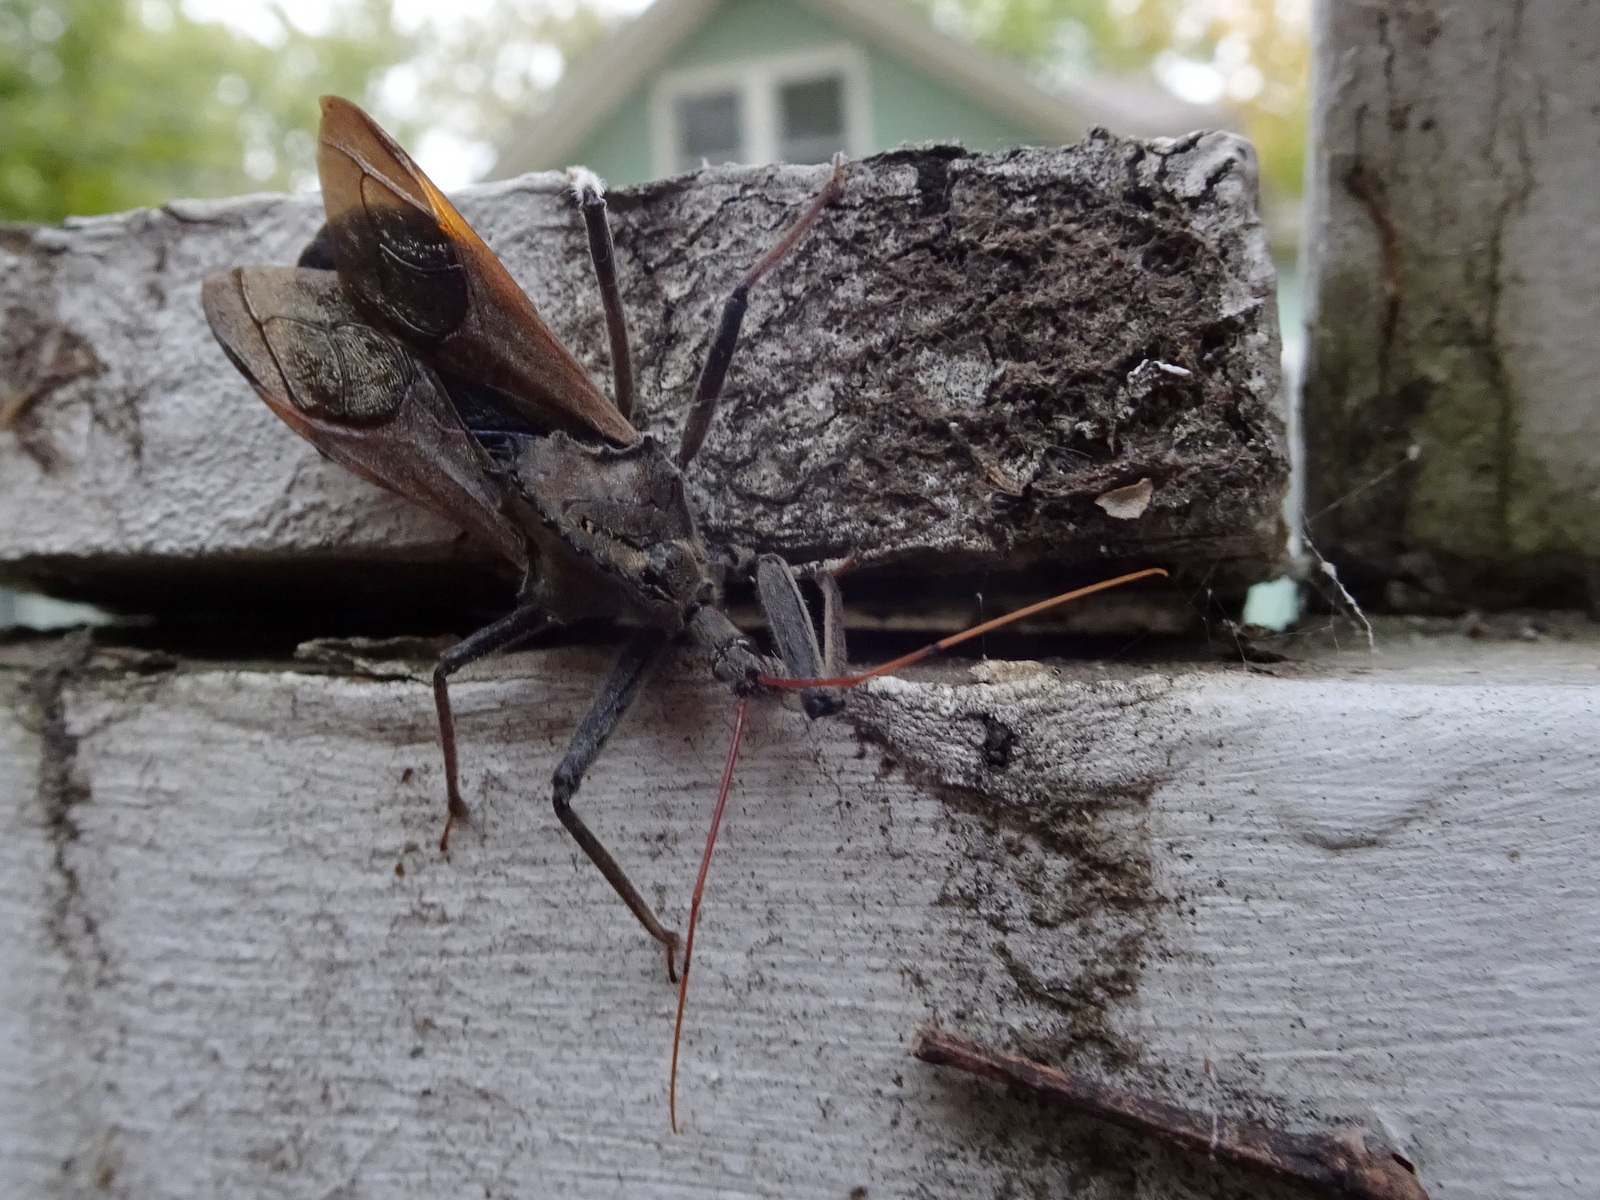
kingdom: Animalia
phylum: Arthropoda
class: Insecta
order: Hemiptera
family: Reduviidae
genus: Arilus
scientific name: Arilus cristatus
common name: North american wheel bug
